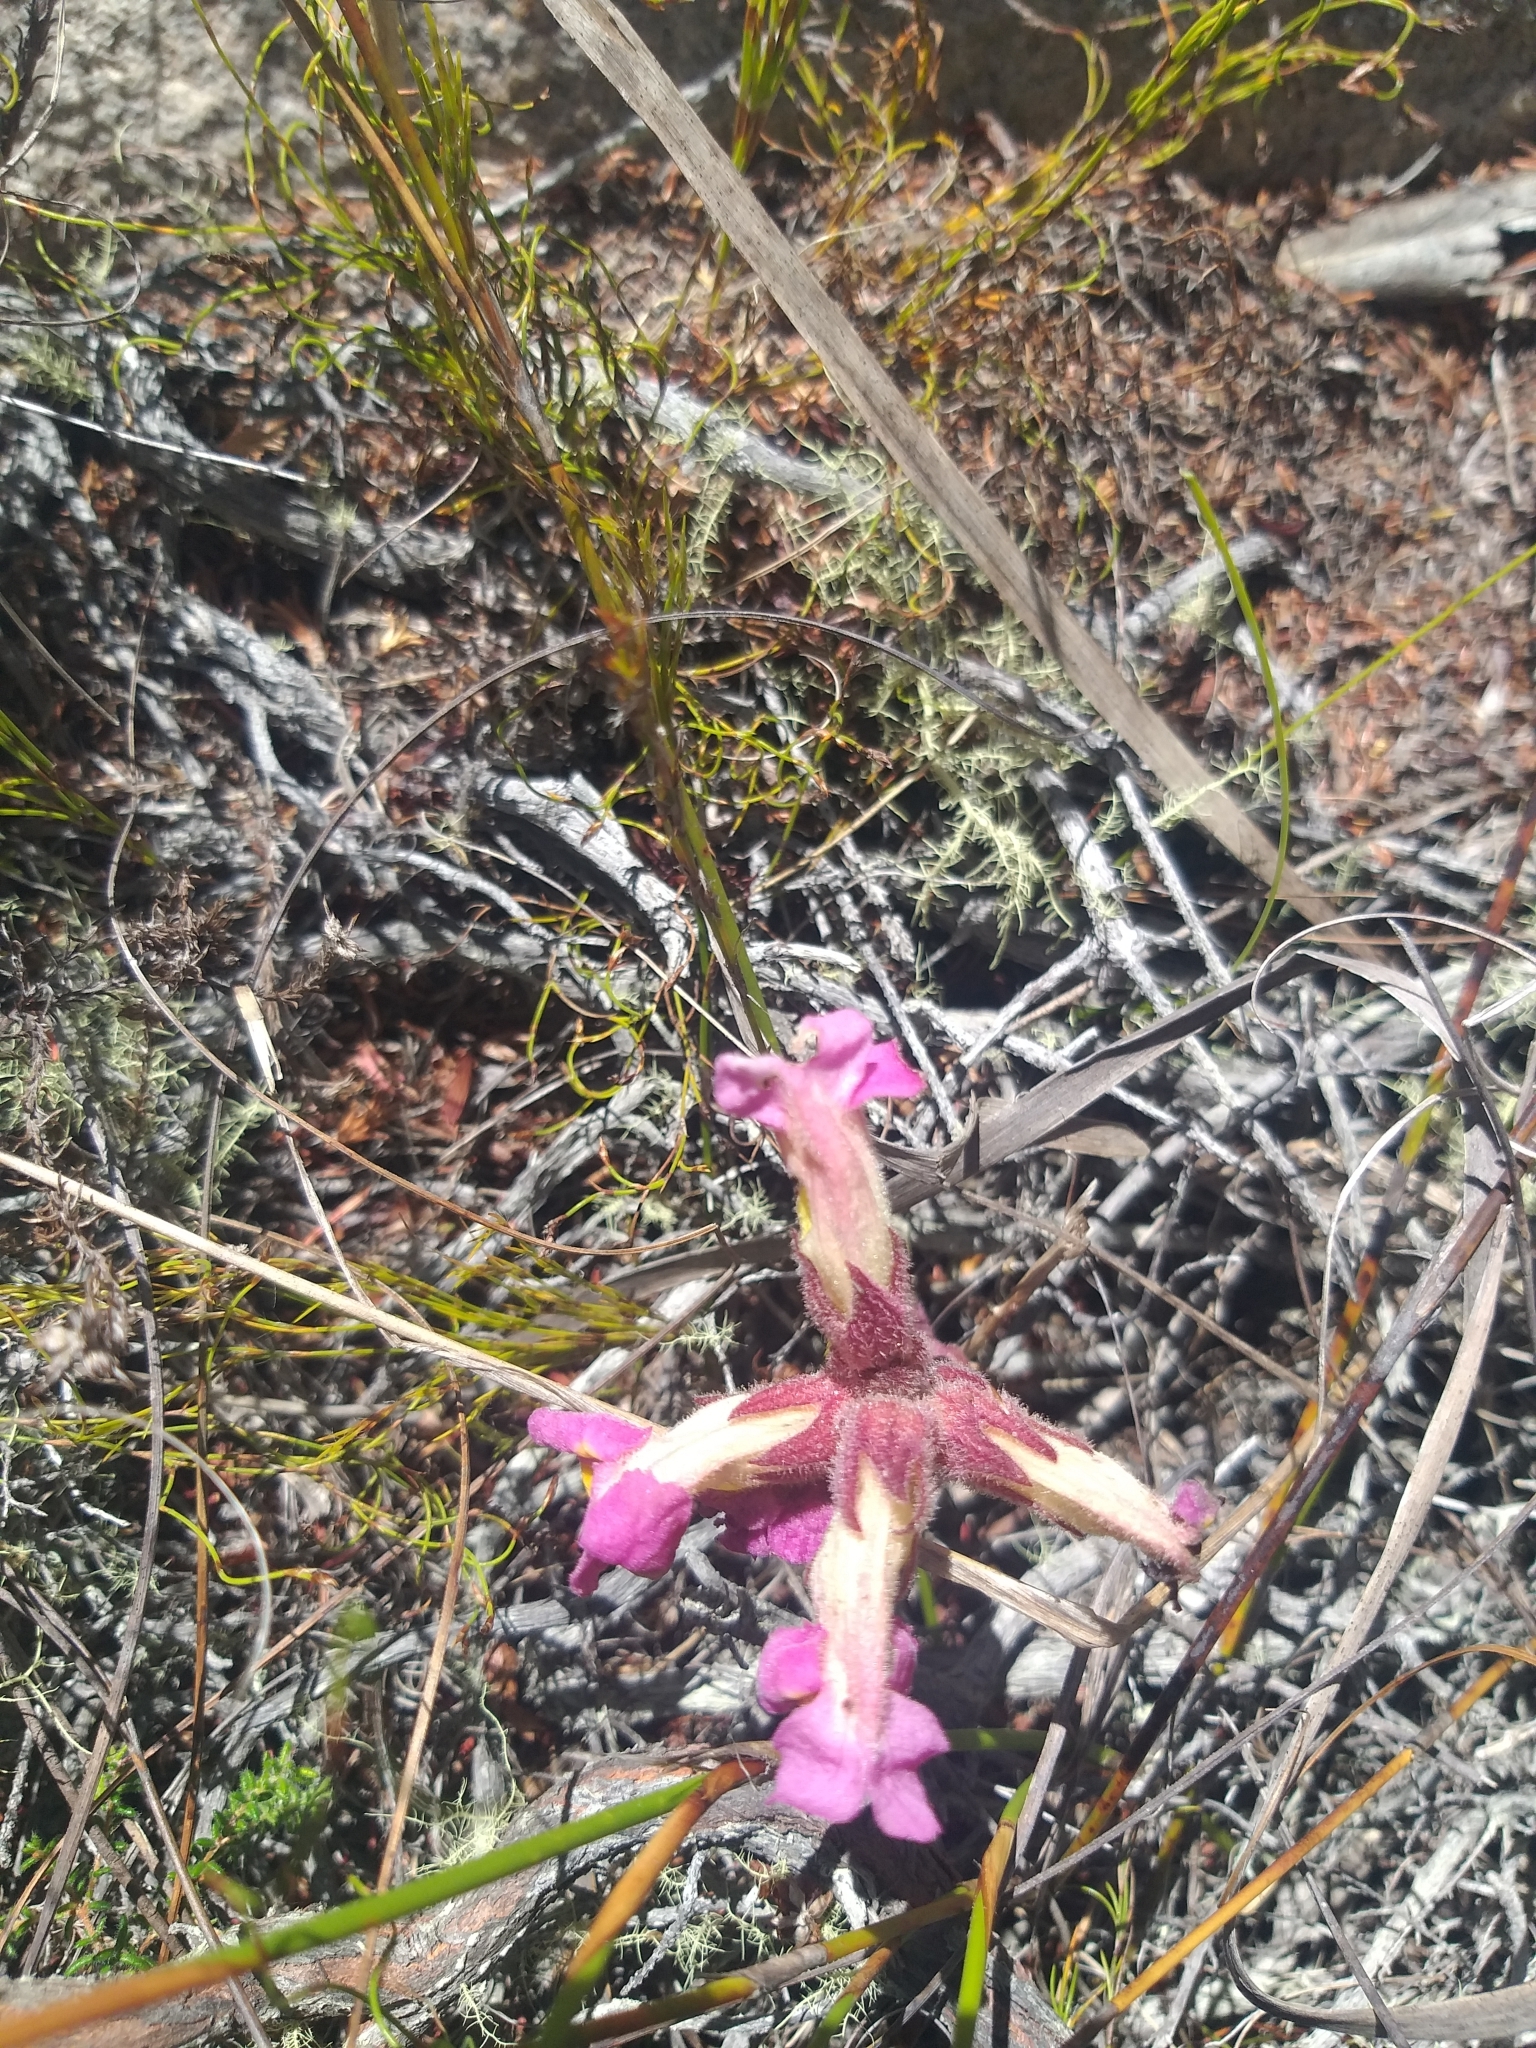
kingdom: Plantae
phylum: Tracheophyta
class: Magnoliopsida
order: Lamiales
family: Orobanchaceae
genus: Harveya
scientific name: Harveya purpurea
